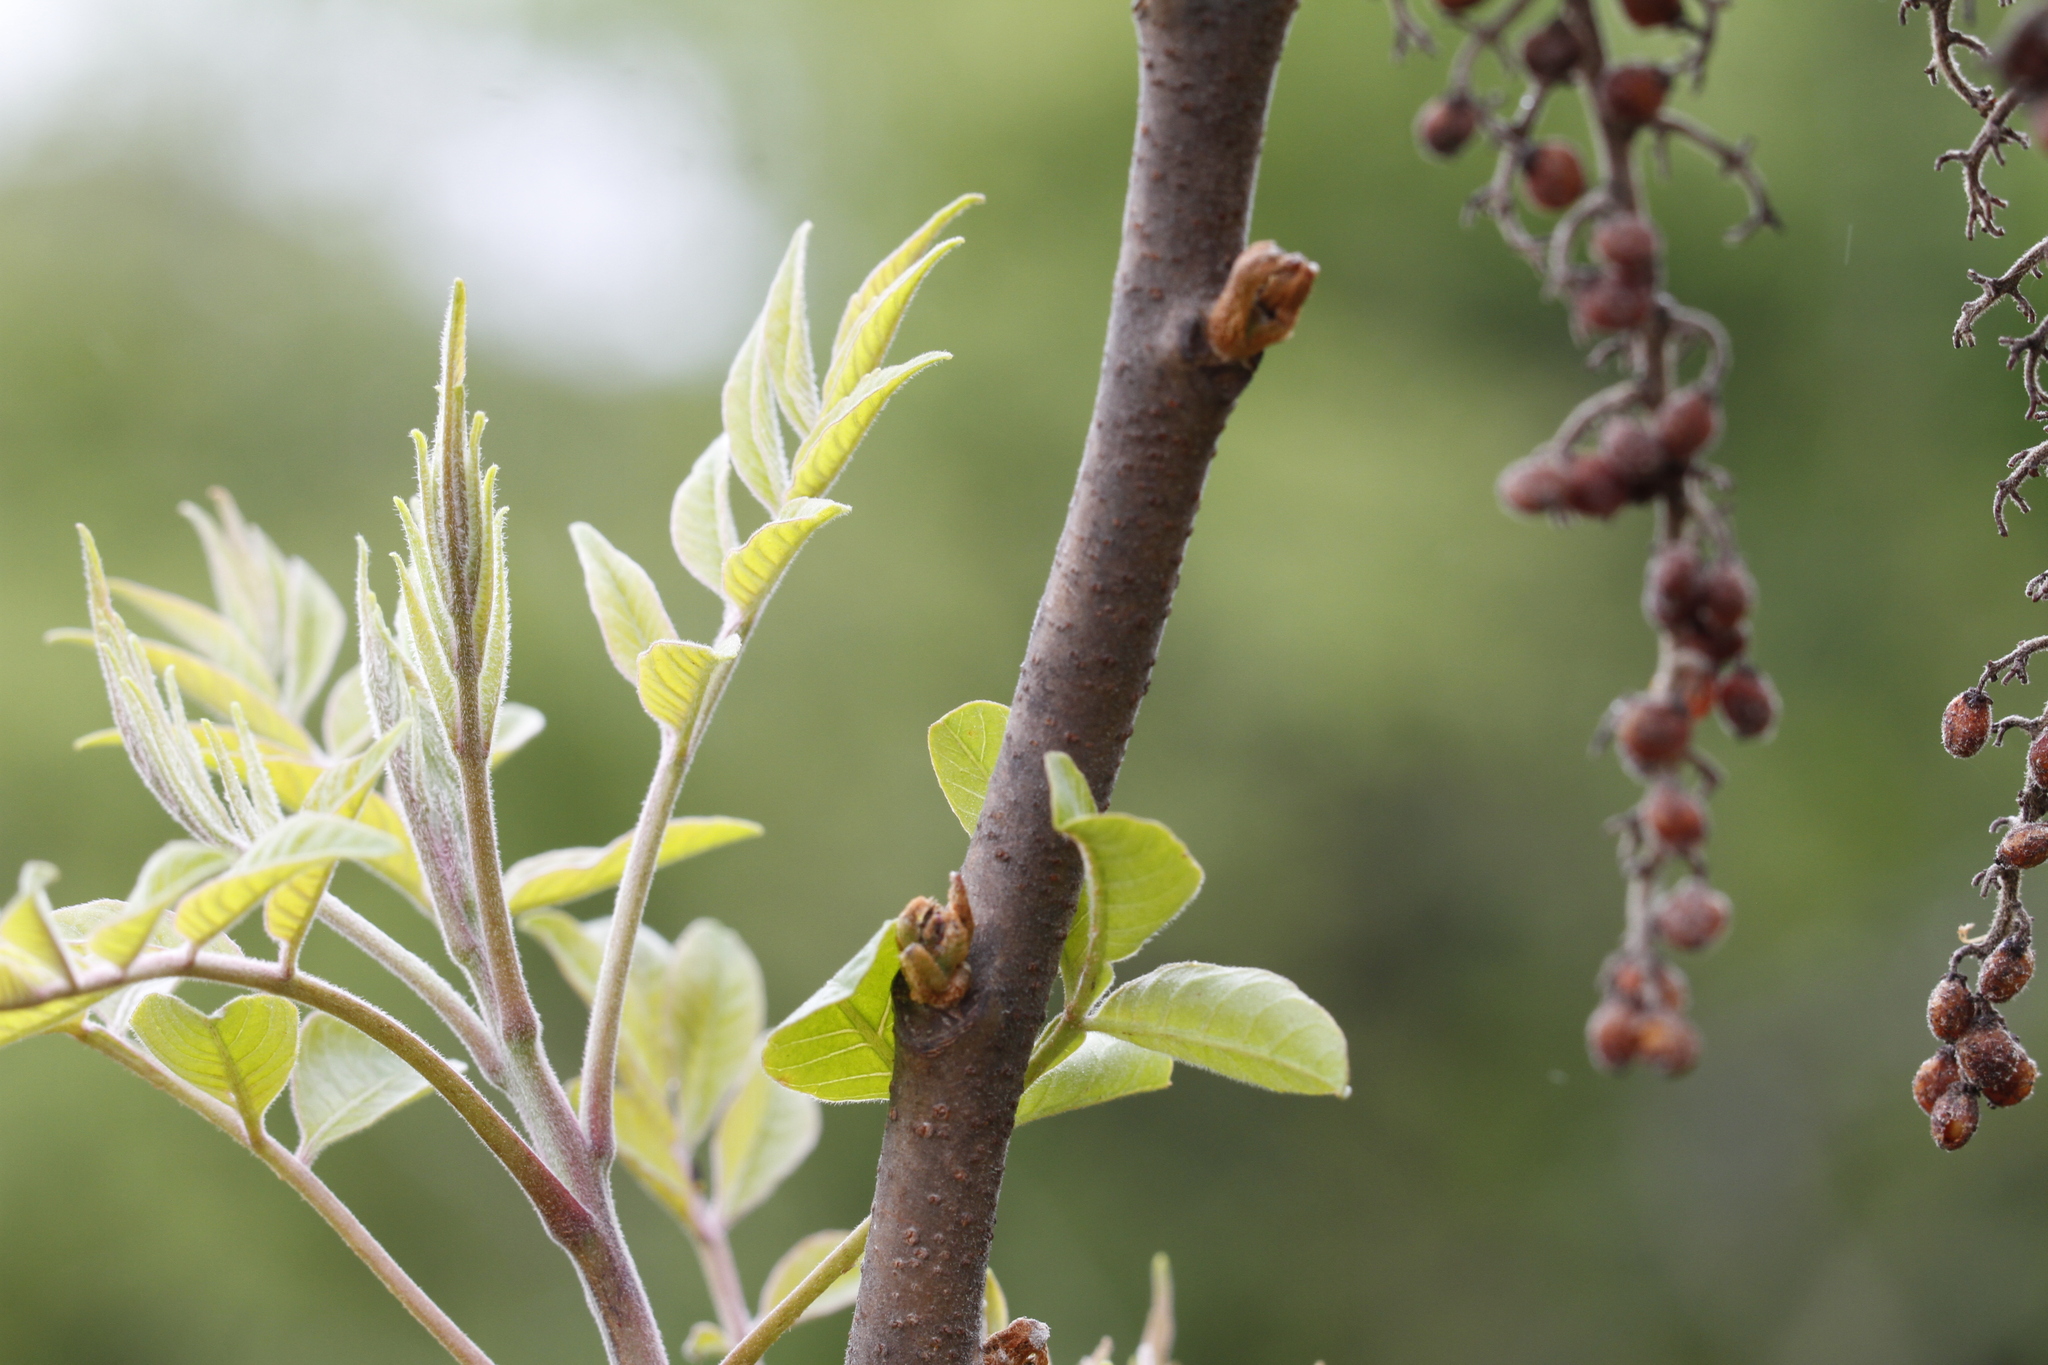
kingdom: Plantae
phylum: Tracheophyta
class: Magnoliopsida
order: Sapindales
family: Anacardiaceae
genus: Rhus
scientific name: Rhus copallina
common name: Shining sumac
